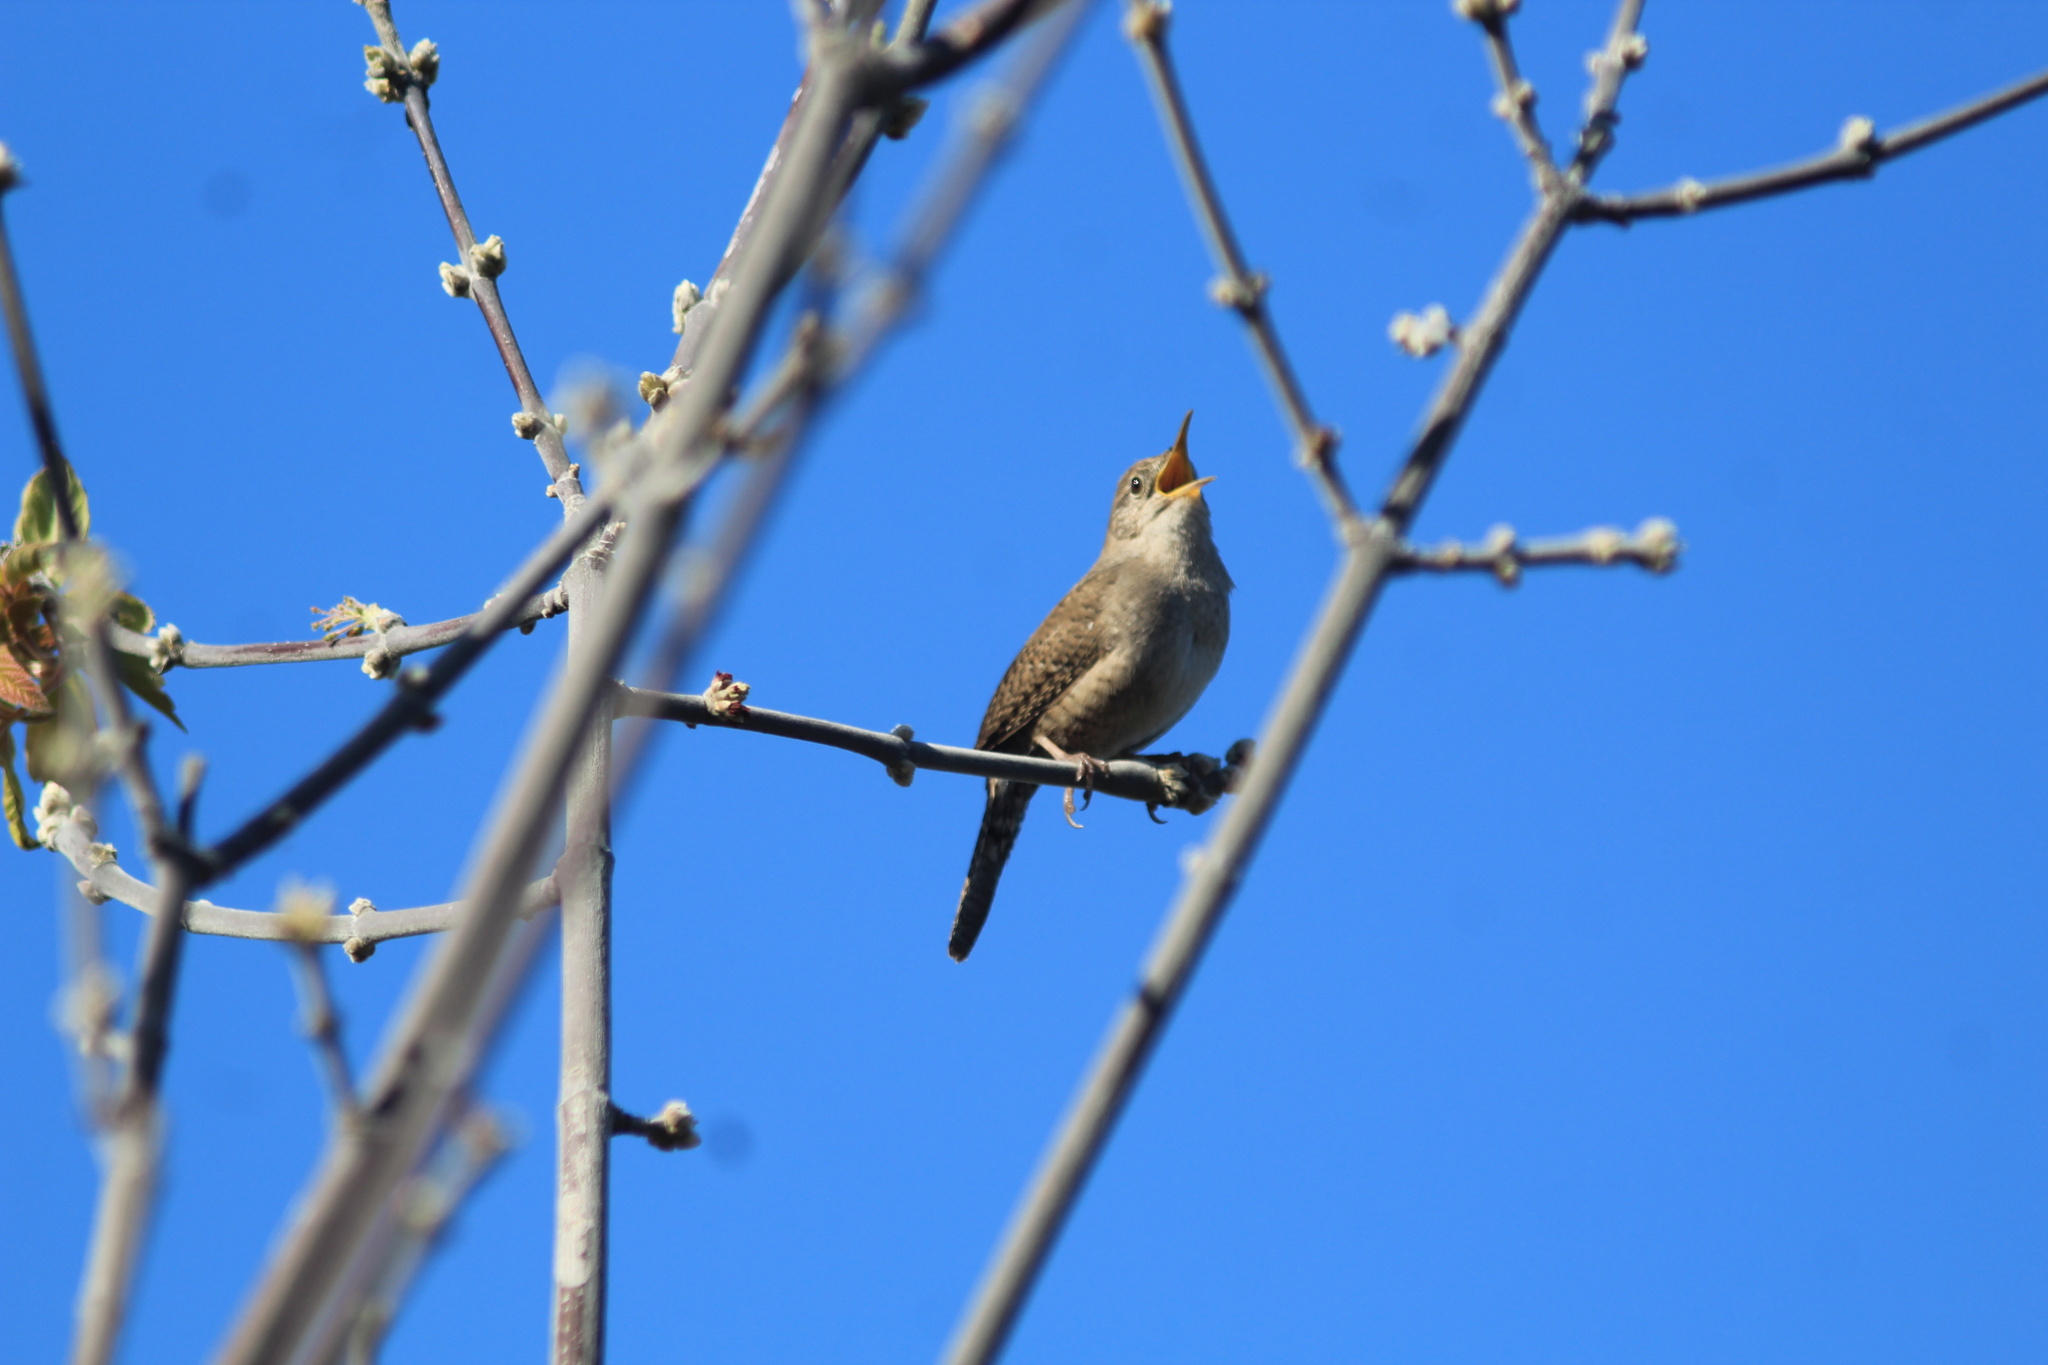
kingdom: Animalia
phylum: Chordata
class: Aves
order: Passeriformes
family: Troglodytidae
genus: Troglodytes
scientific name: Troglodytes aedon
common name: House wren
